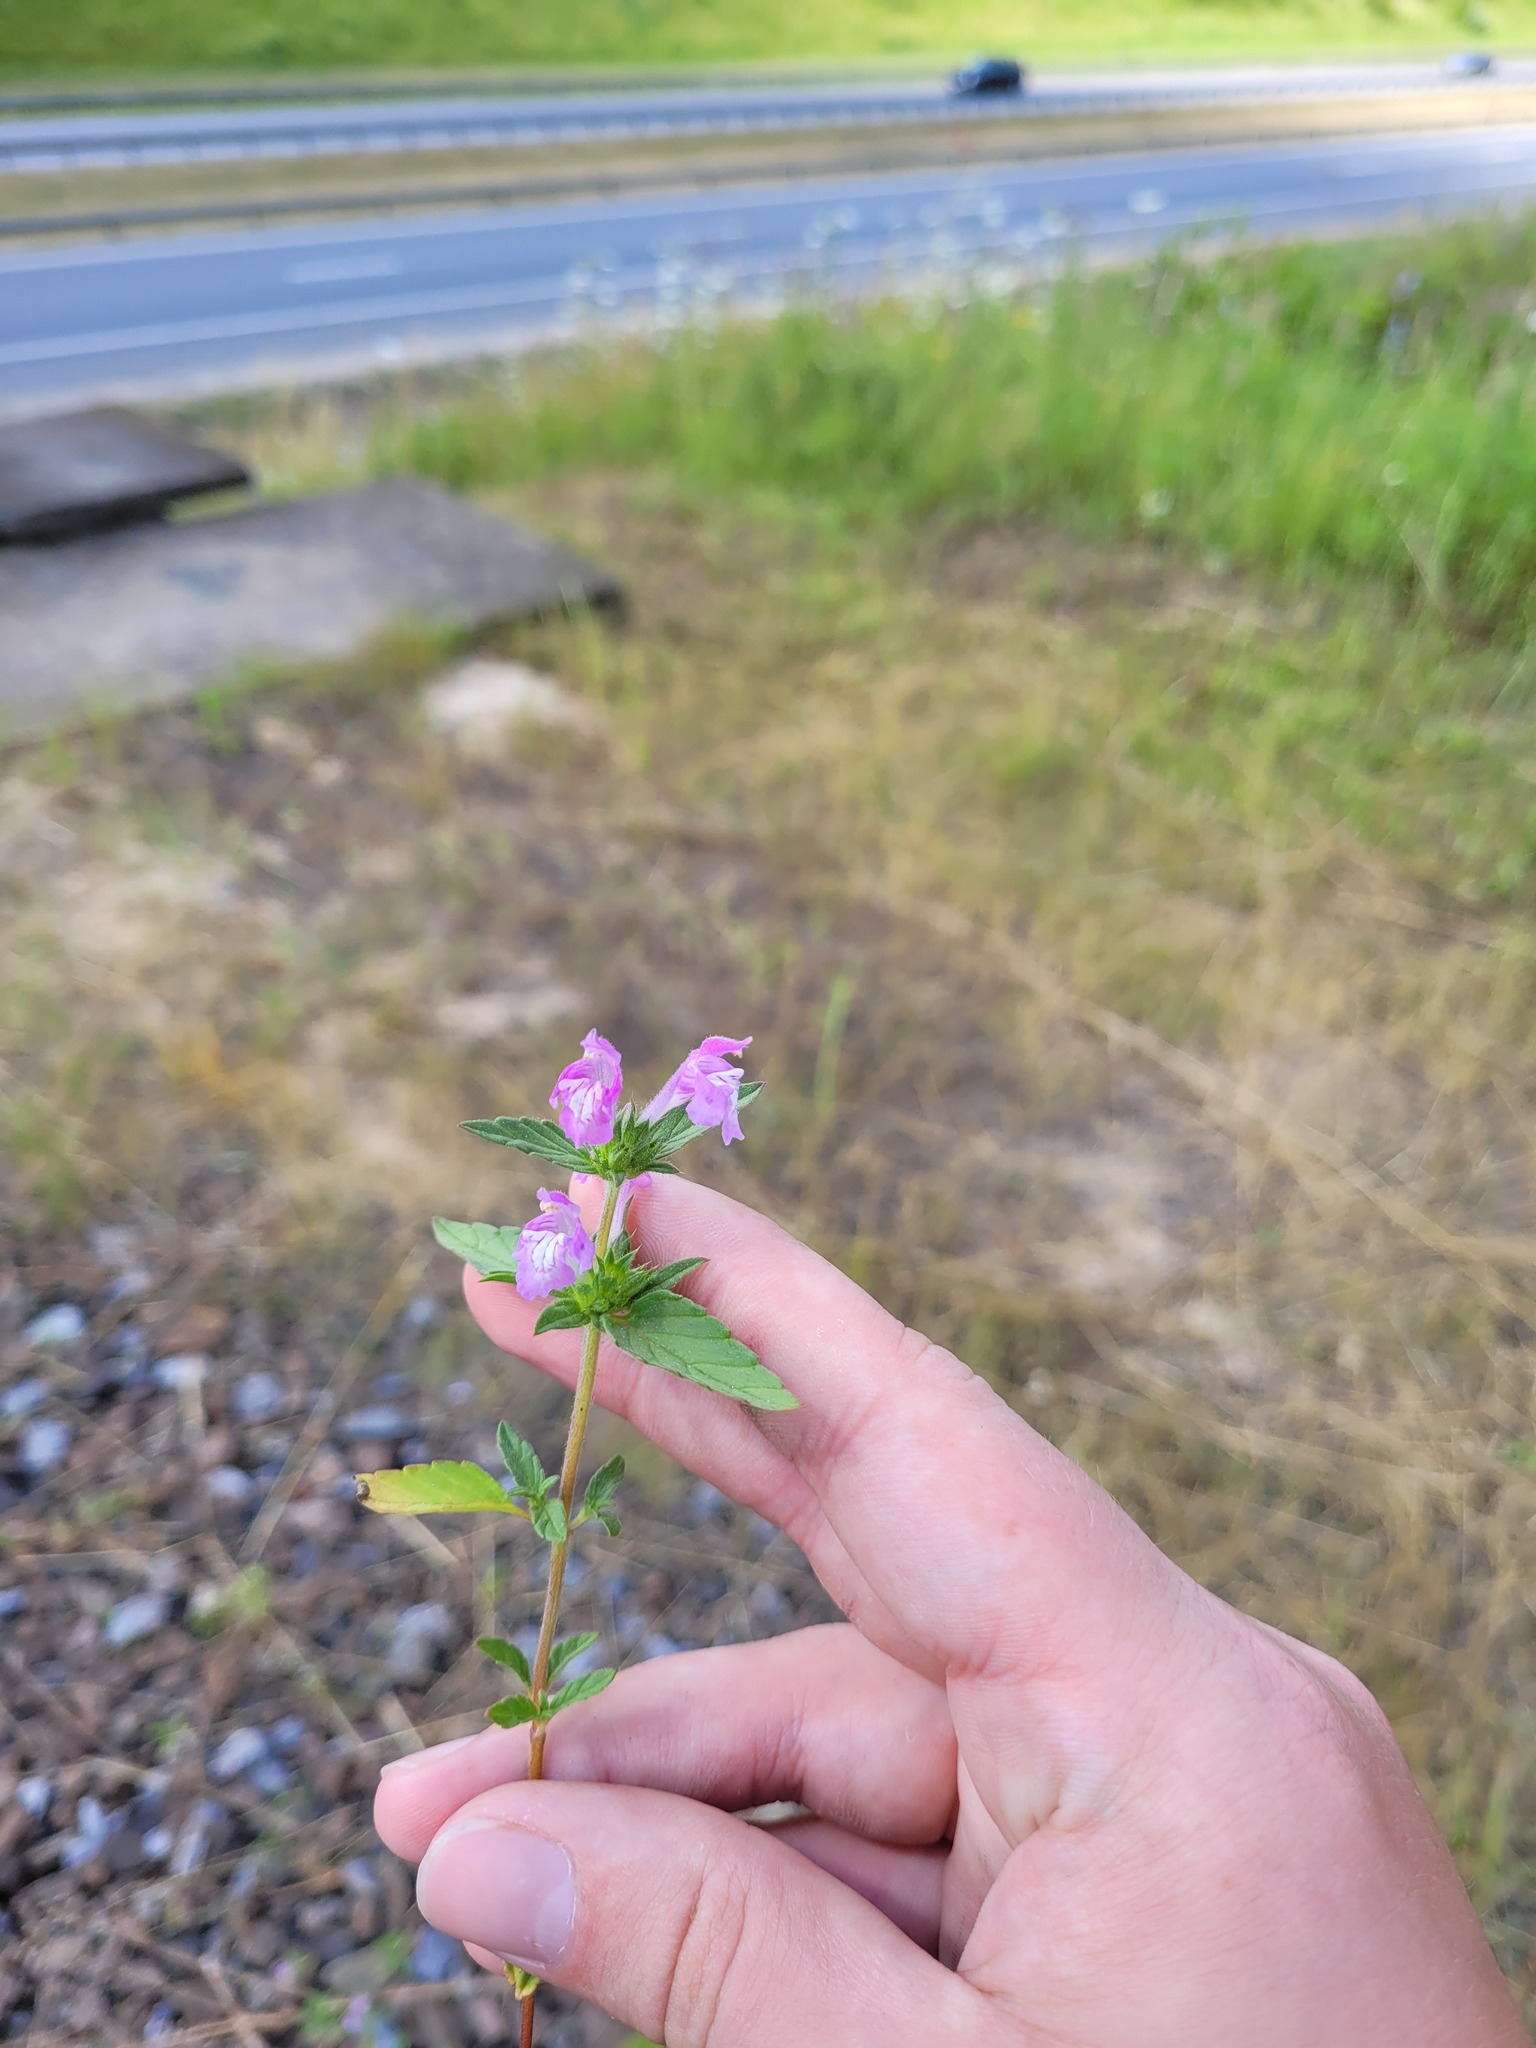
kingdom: Plantae
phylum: Tracheophyta
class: Magnoliopsida
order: Lamiales
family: Lamiaceae
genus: Galeopsis
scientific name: Galeopsis ladanum
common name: Broad-leaved hemp-nettle
